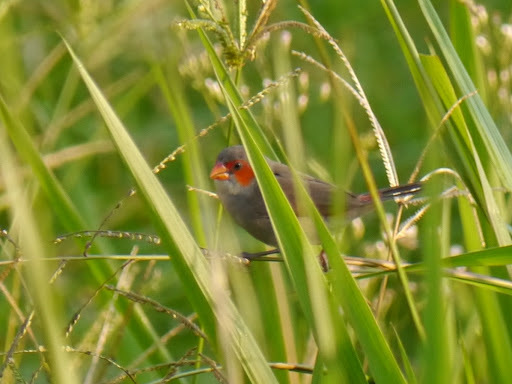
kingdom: Animalia
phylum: Chordata
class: Aves
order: Passeriformes
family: Estrildidae
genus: Estrilda
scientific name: Estrilda melpoda
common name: Orange-cheeked waxbill
